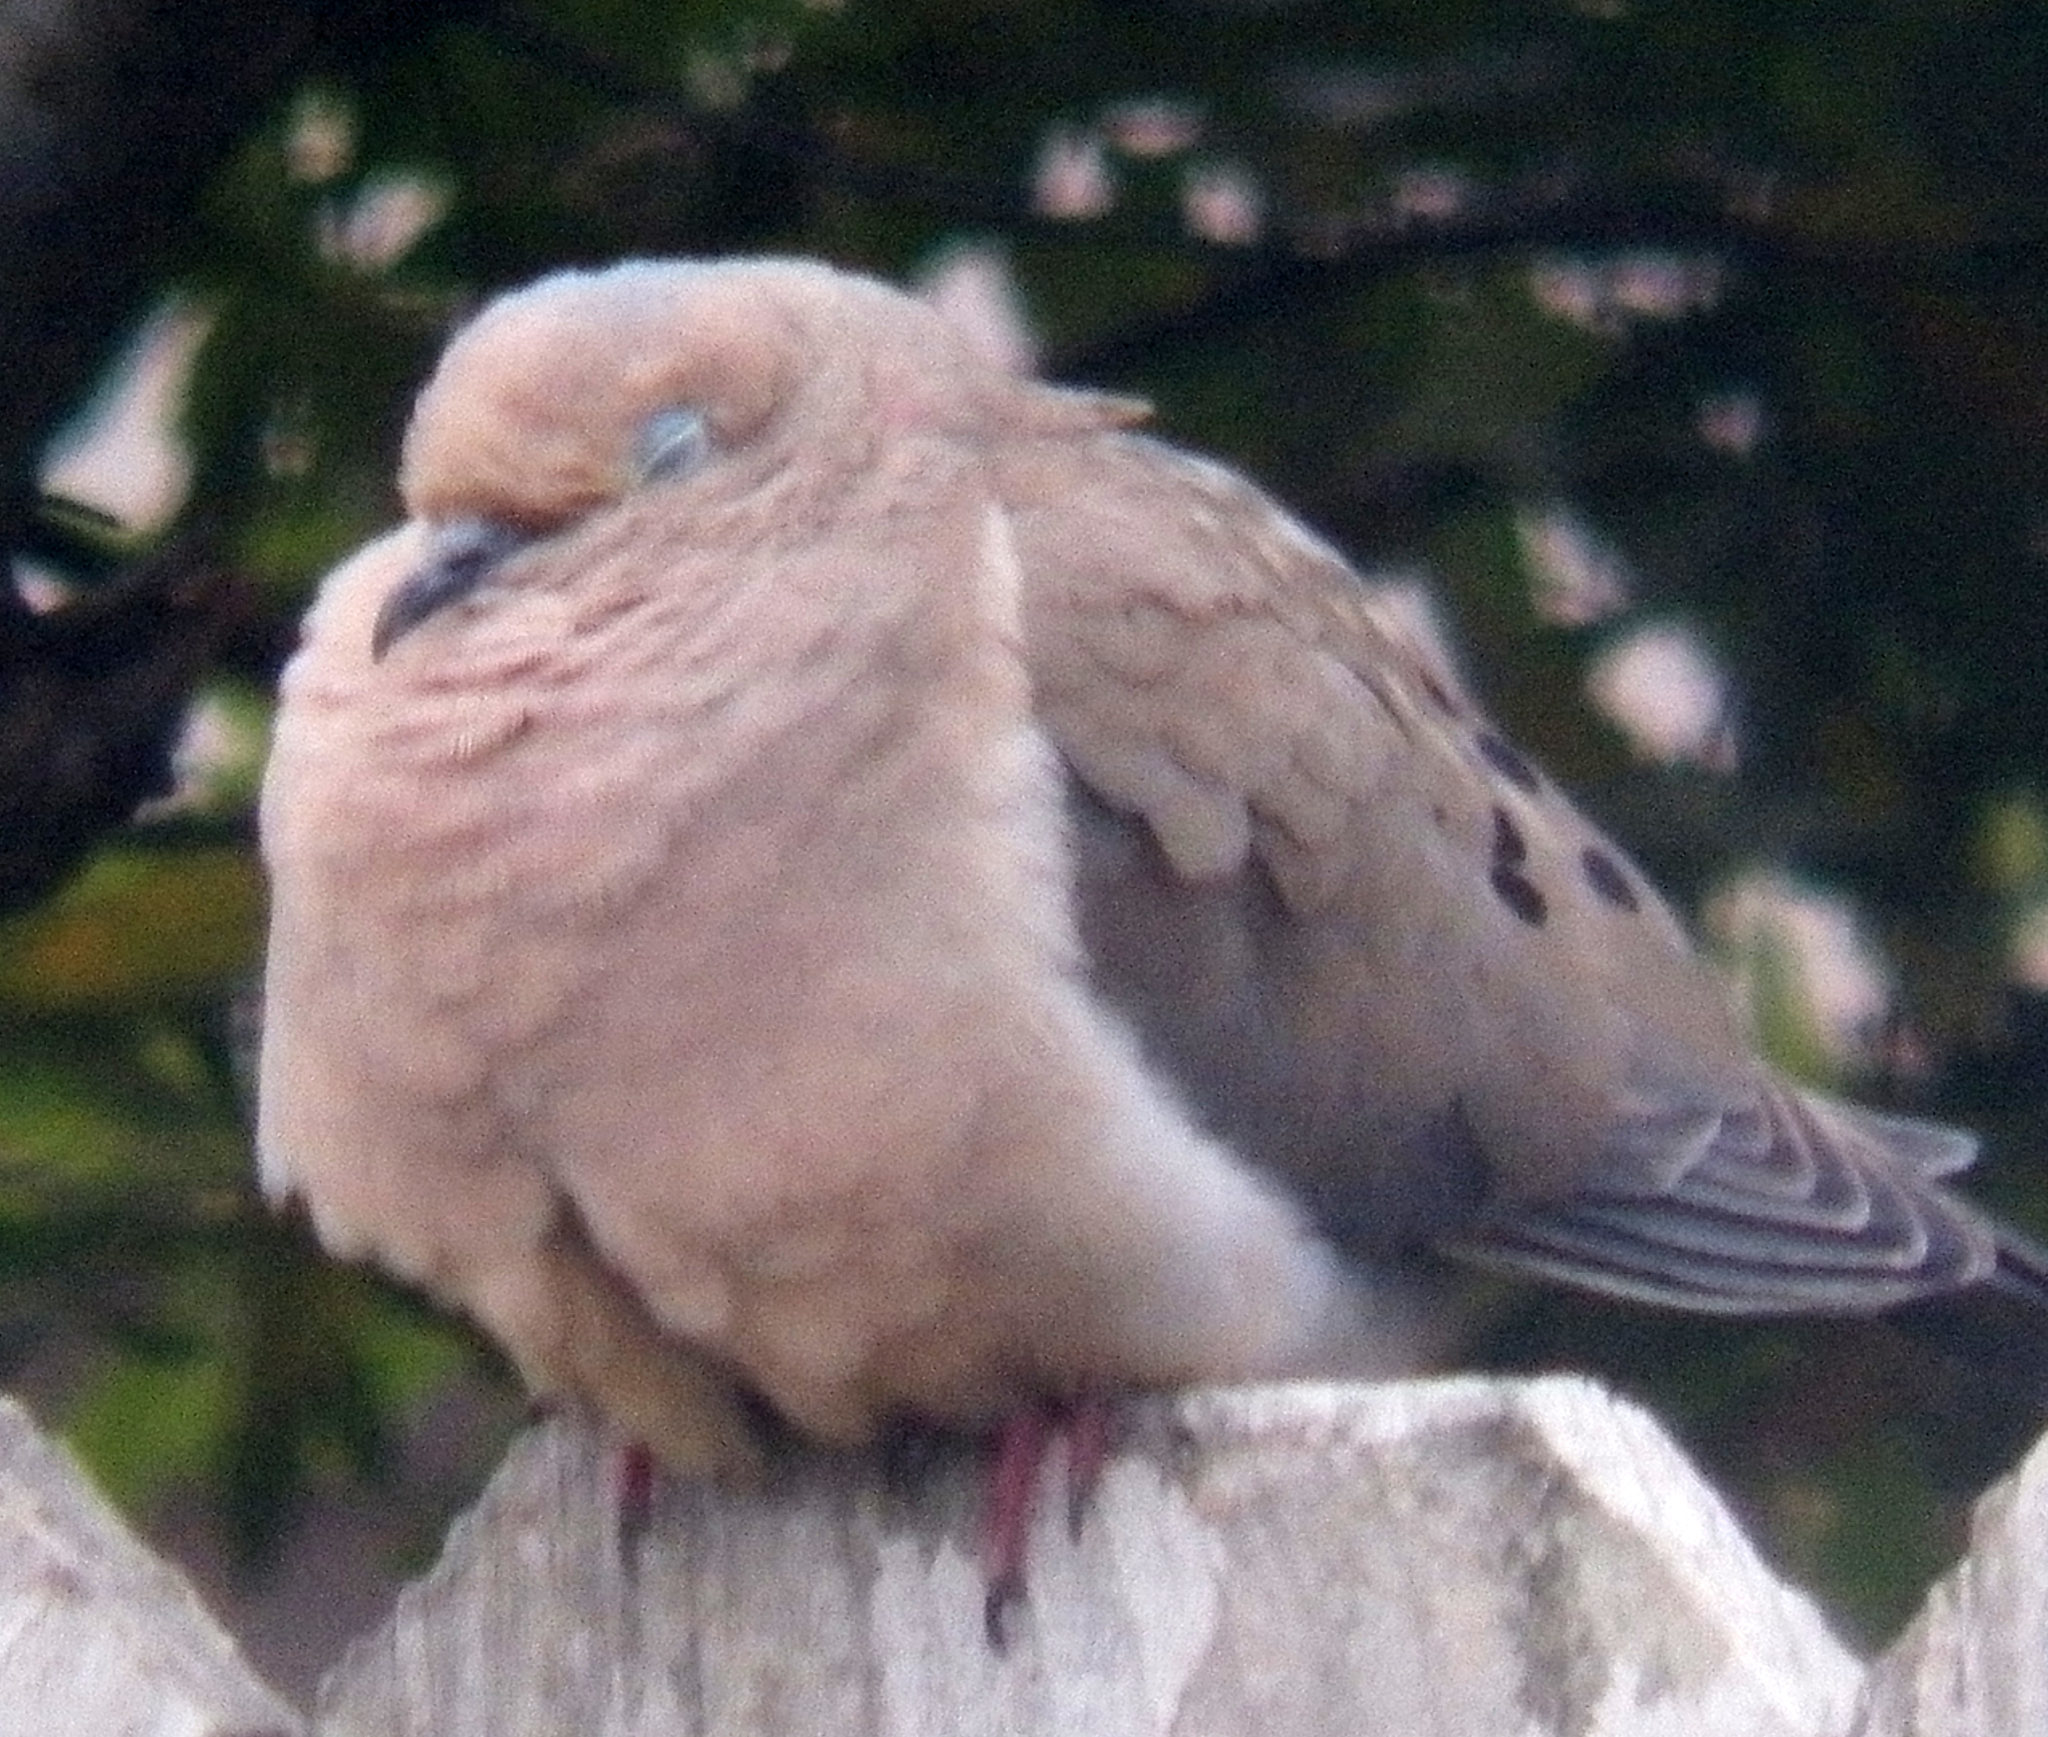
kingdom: Animalia
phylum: Chordata
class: Aves
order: Columbiformes
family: Columbidae
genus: Zenaida
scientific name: Zenaida macroura
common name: Mourning dove
